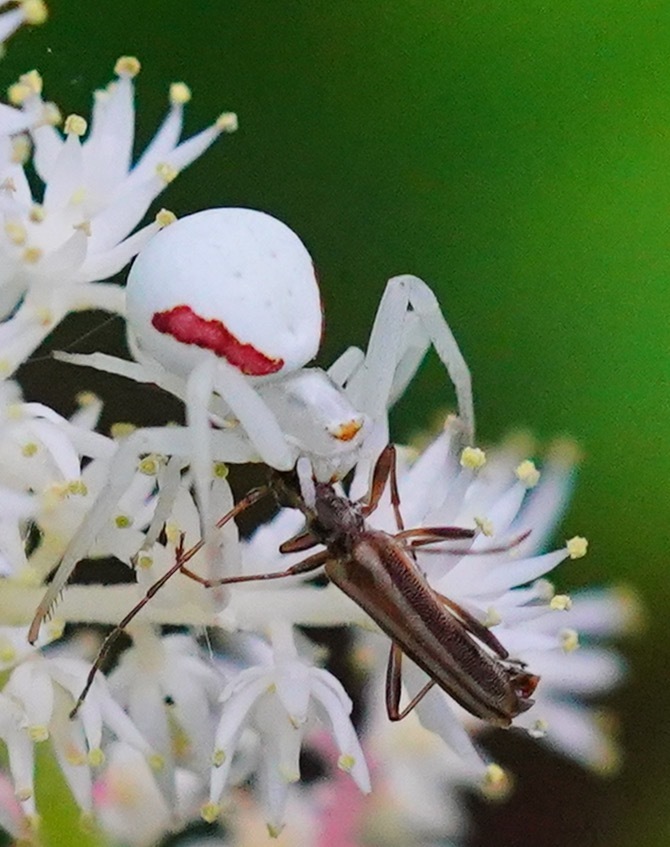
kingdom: Animalia
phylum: Arthropoda
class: Insecta
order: Coleoptera
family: Cerambycidae
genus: Leptalia
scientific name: Leptalia macilenta
